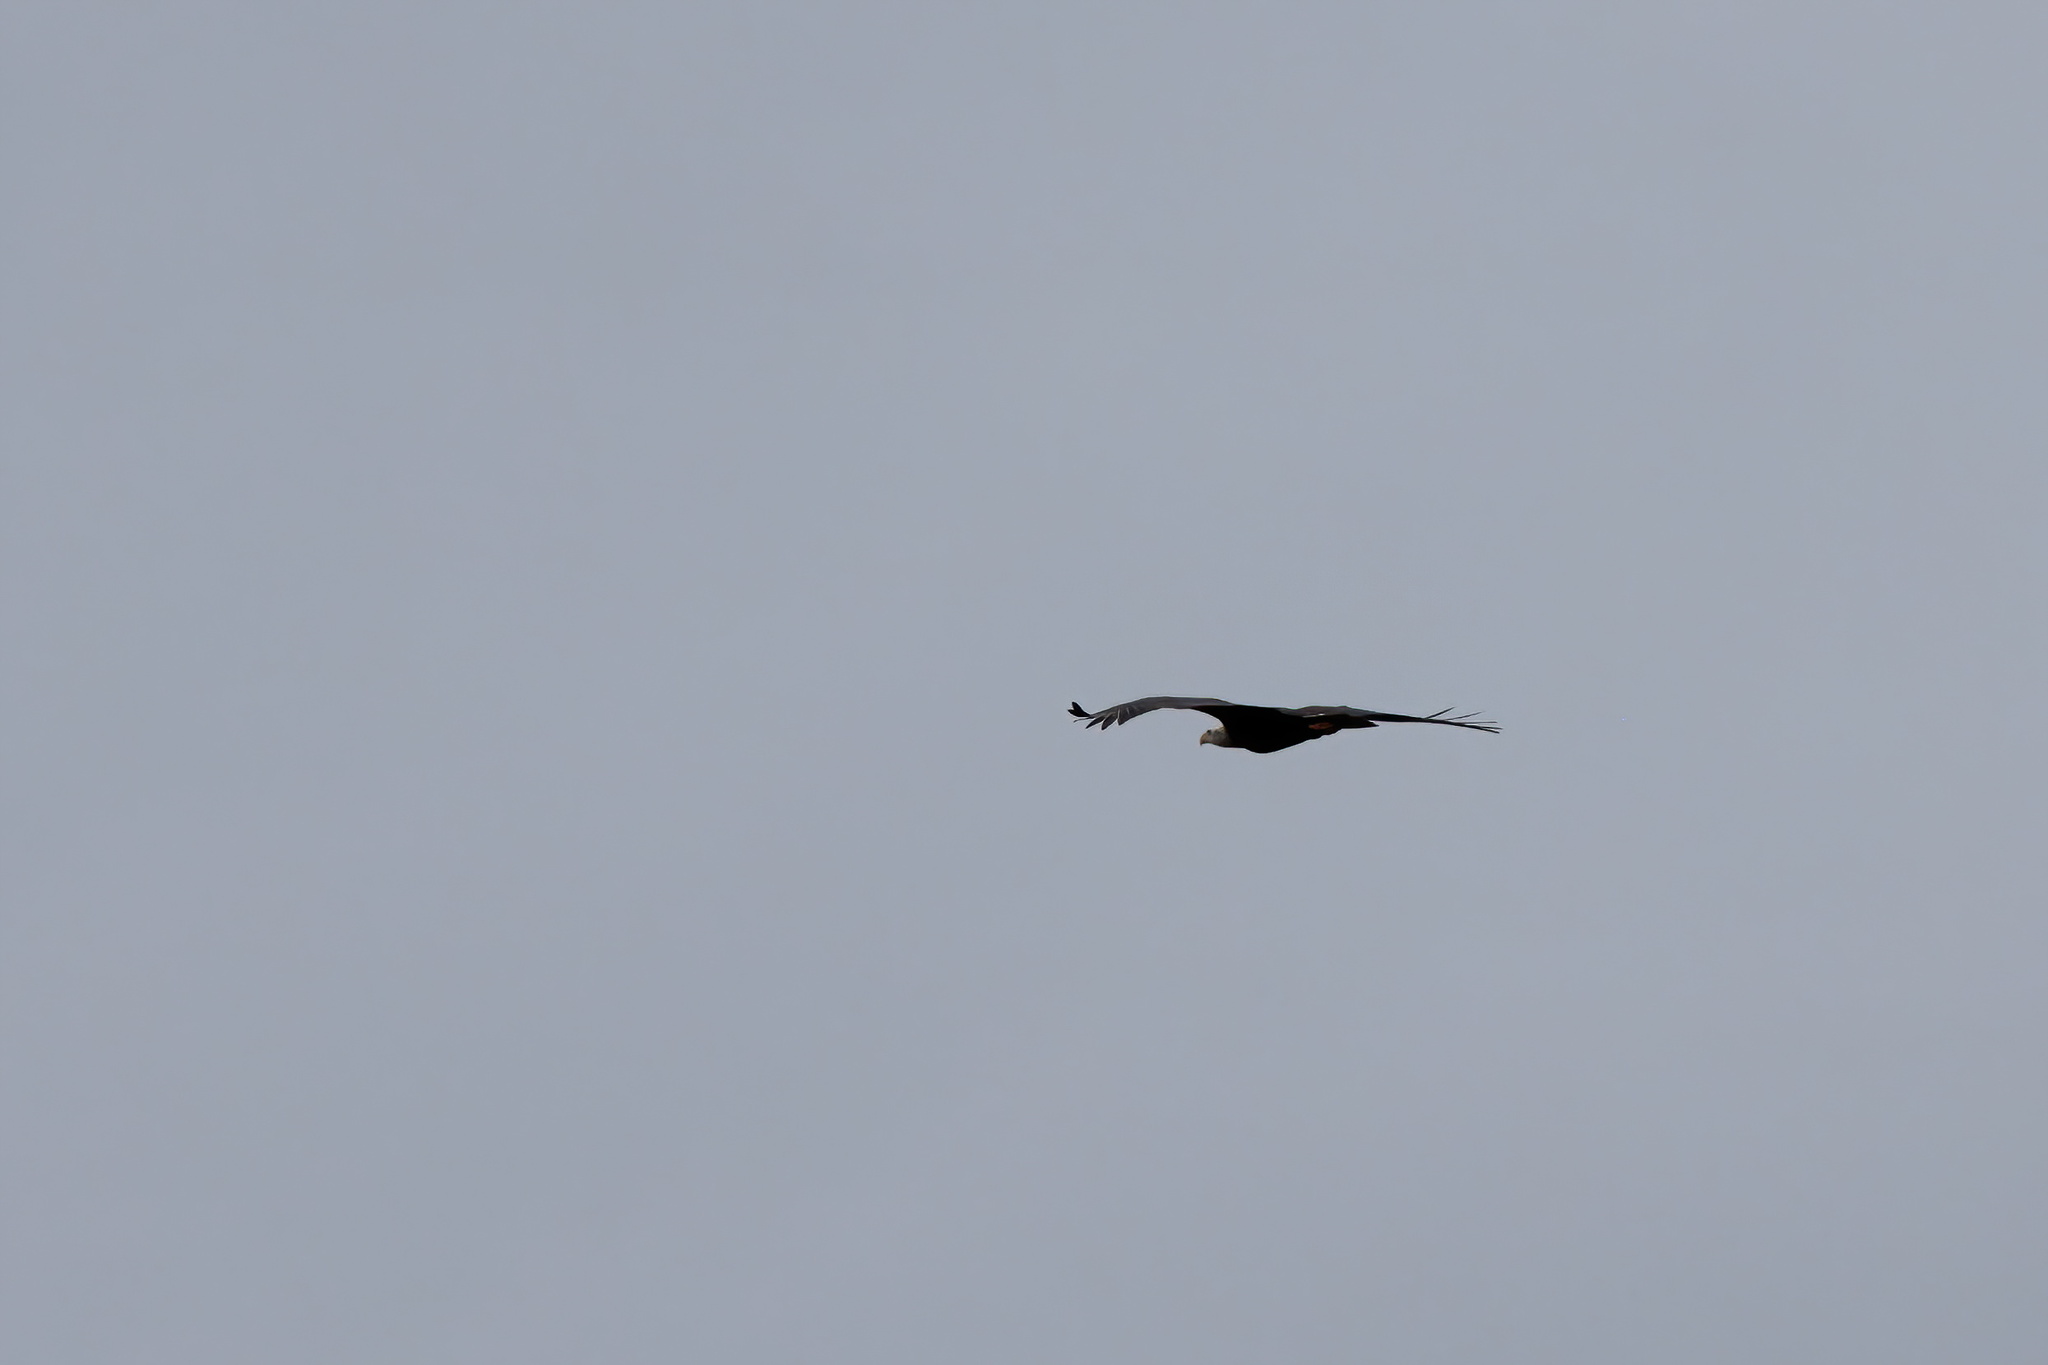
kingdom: Animalia
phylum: Chordata
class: Aves
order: Accipitriformes
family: Accipitridae
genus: Haliaeetus
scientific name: Haliaeetus leucocephalus
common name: Bald eagle
